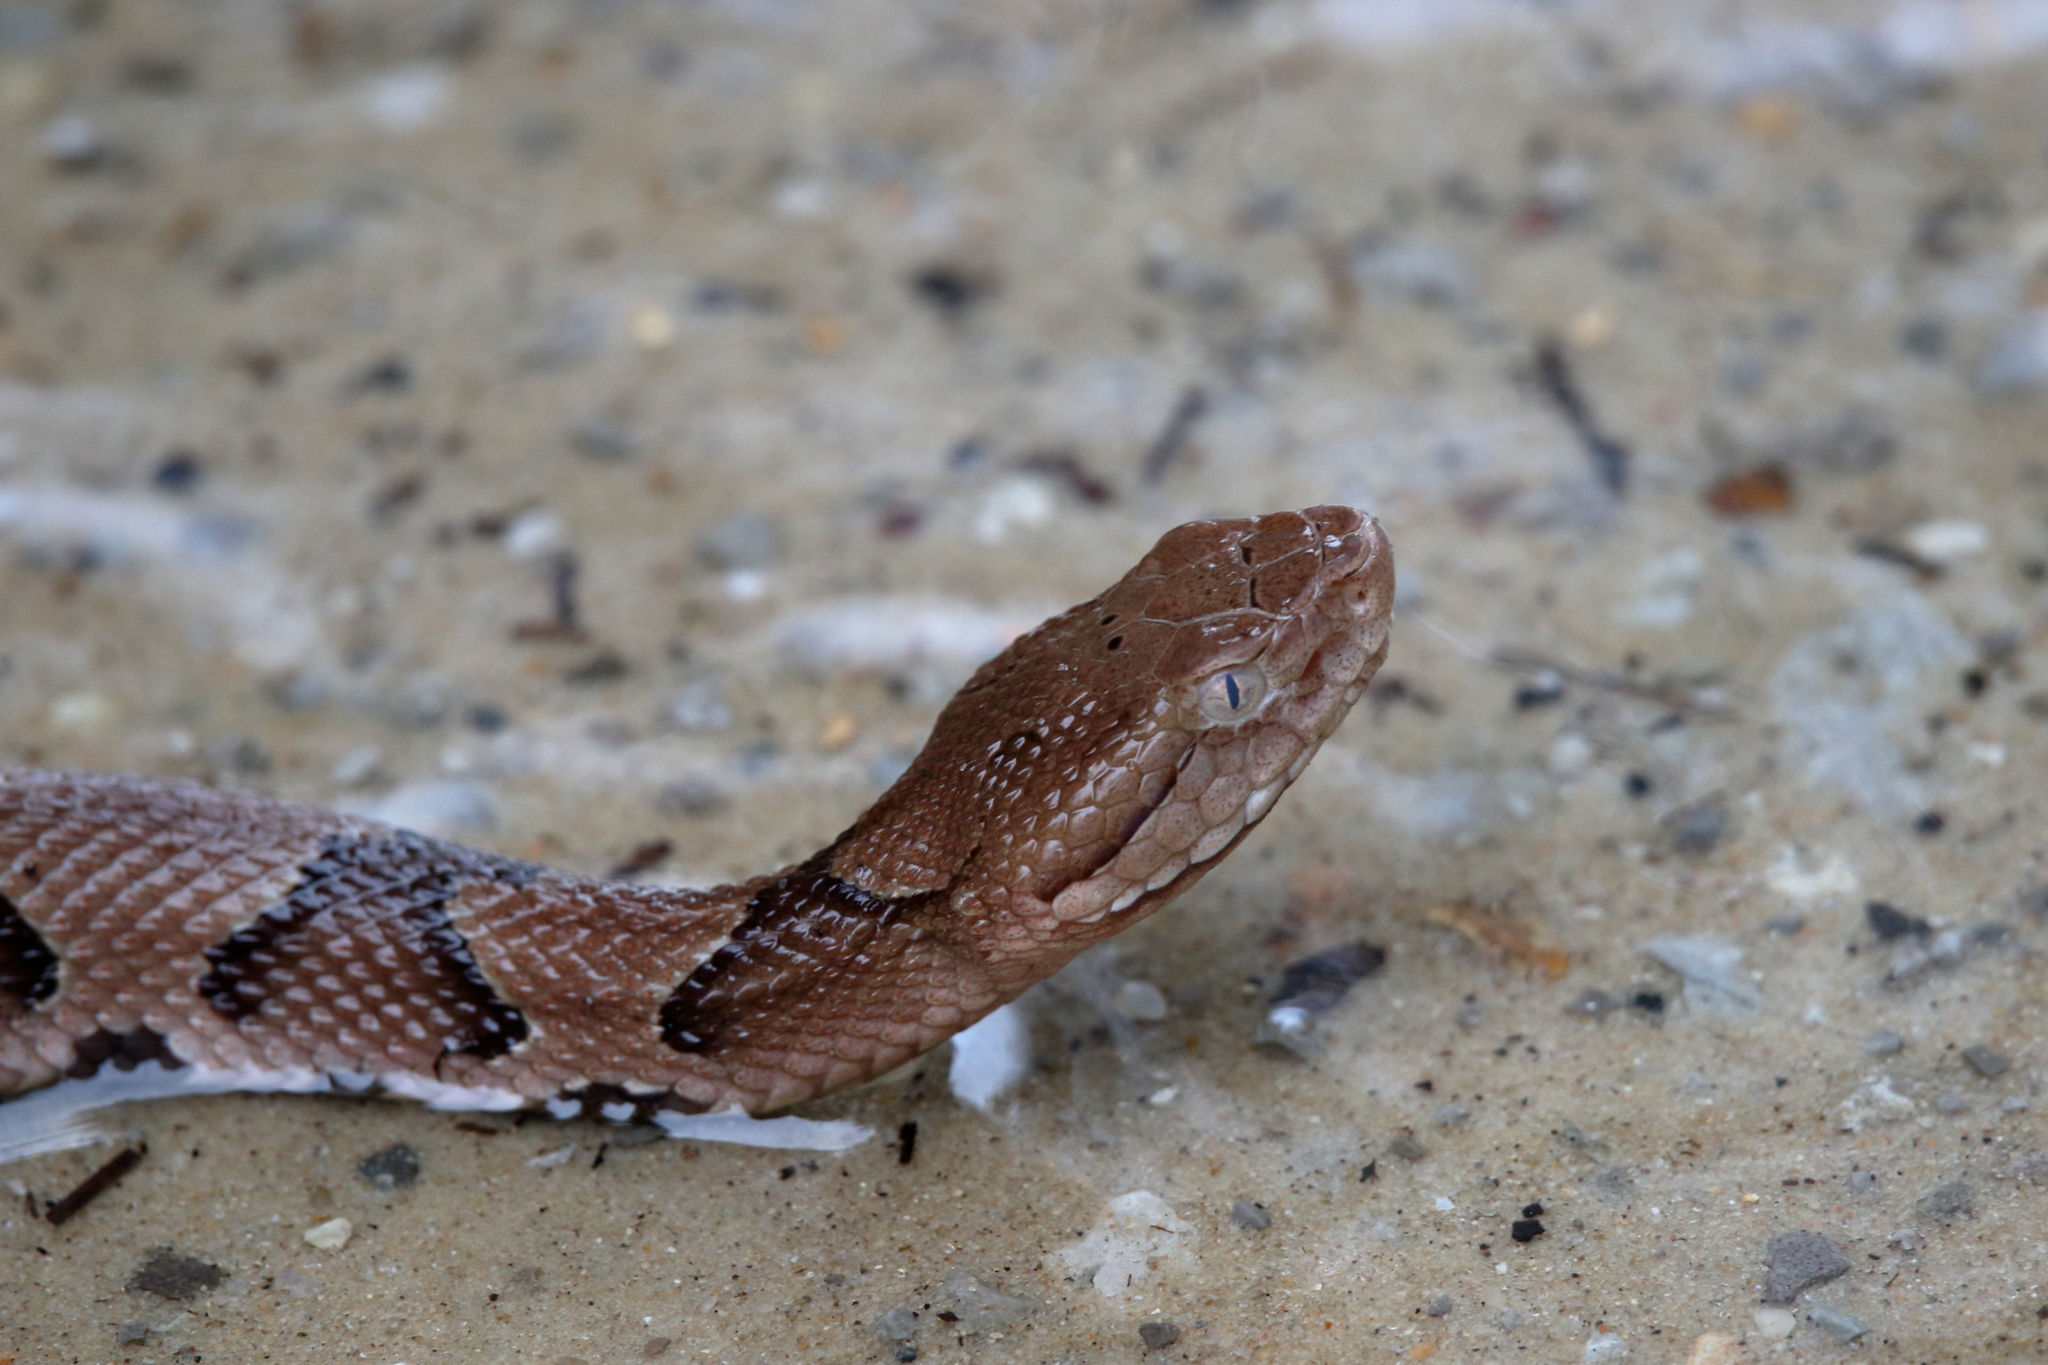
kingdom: Animalia
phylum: Chordata
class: Squamata
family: Viperidae
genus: Agkistrodon
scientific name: Agkistrodon contortrix
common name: Northern copperhead
